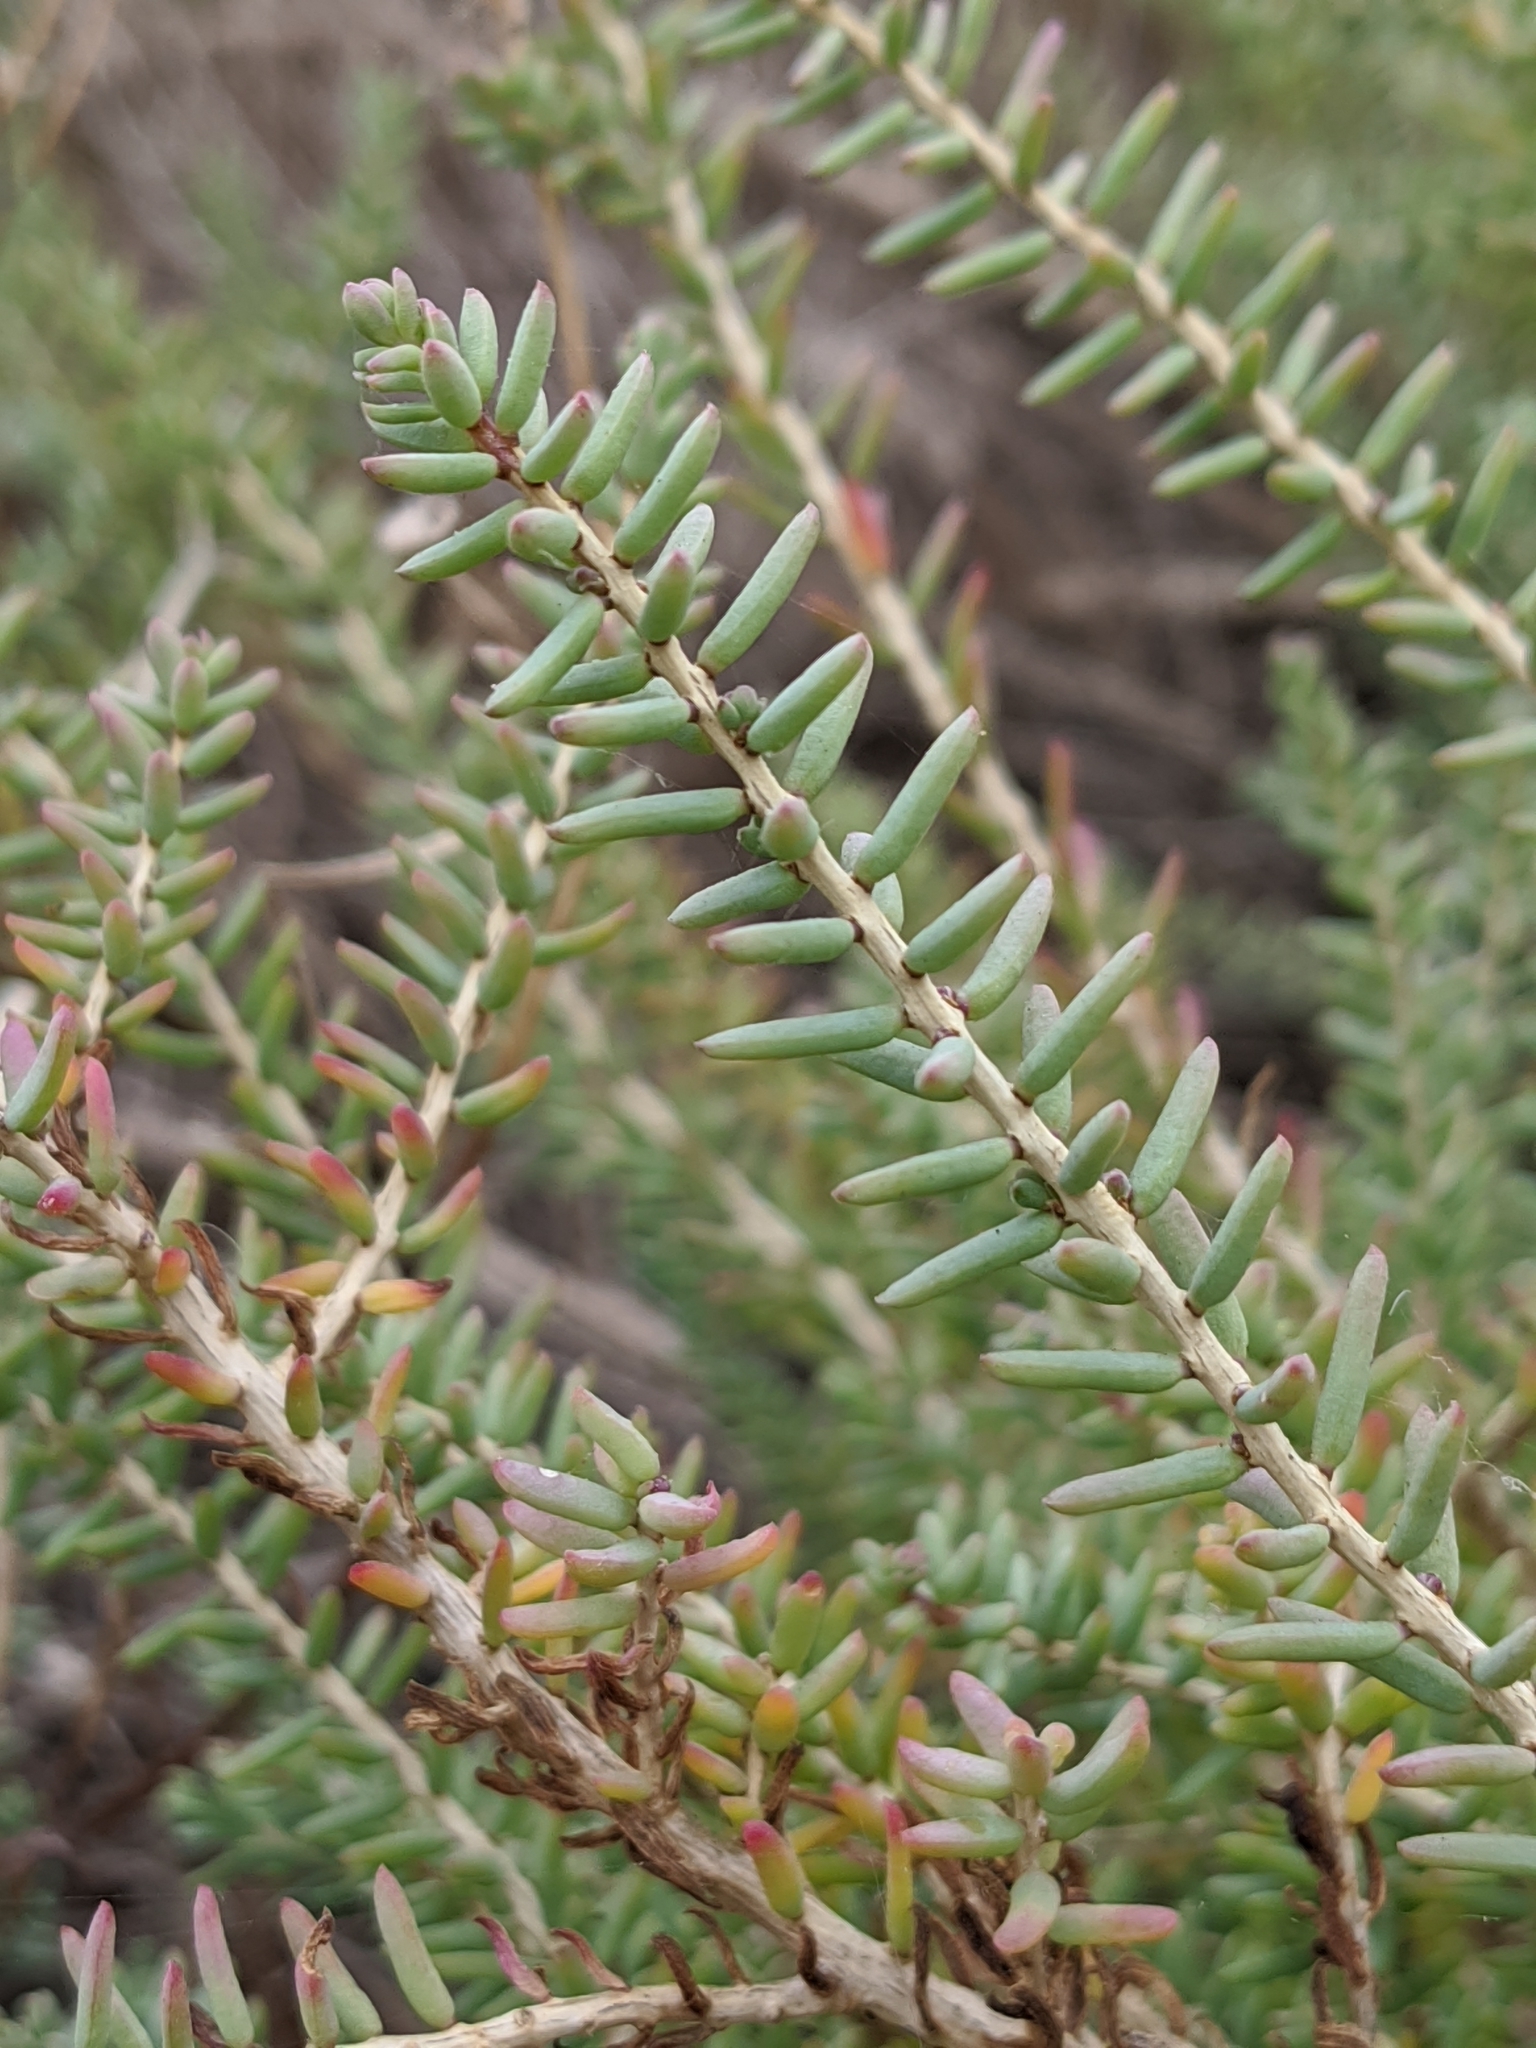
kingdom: Plantae
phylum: Tracheophyta
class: Magnoliopsida
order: Caryophyllales
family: Amaranthaceae
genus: Suaeda
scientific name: Suaeda vera
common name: Shrubby sea-blite
